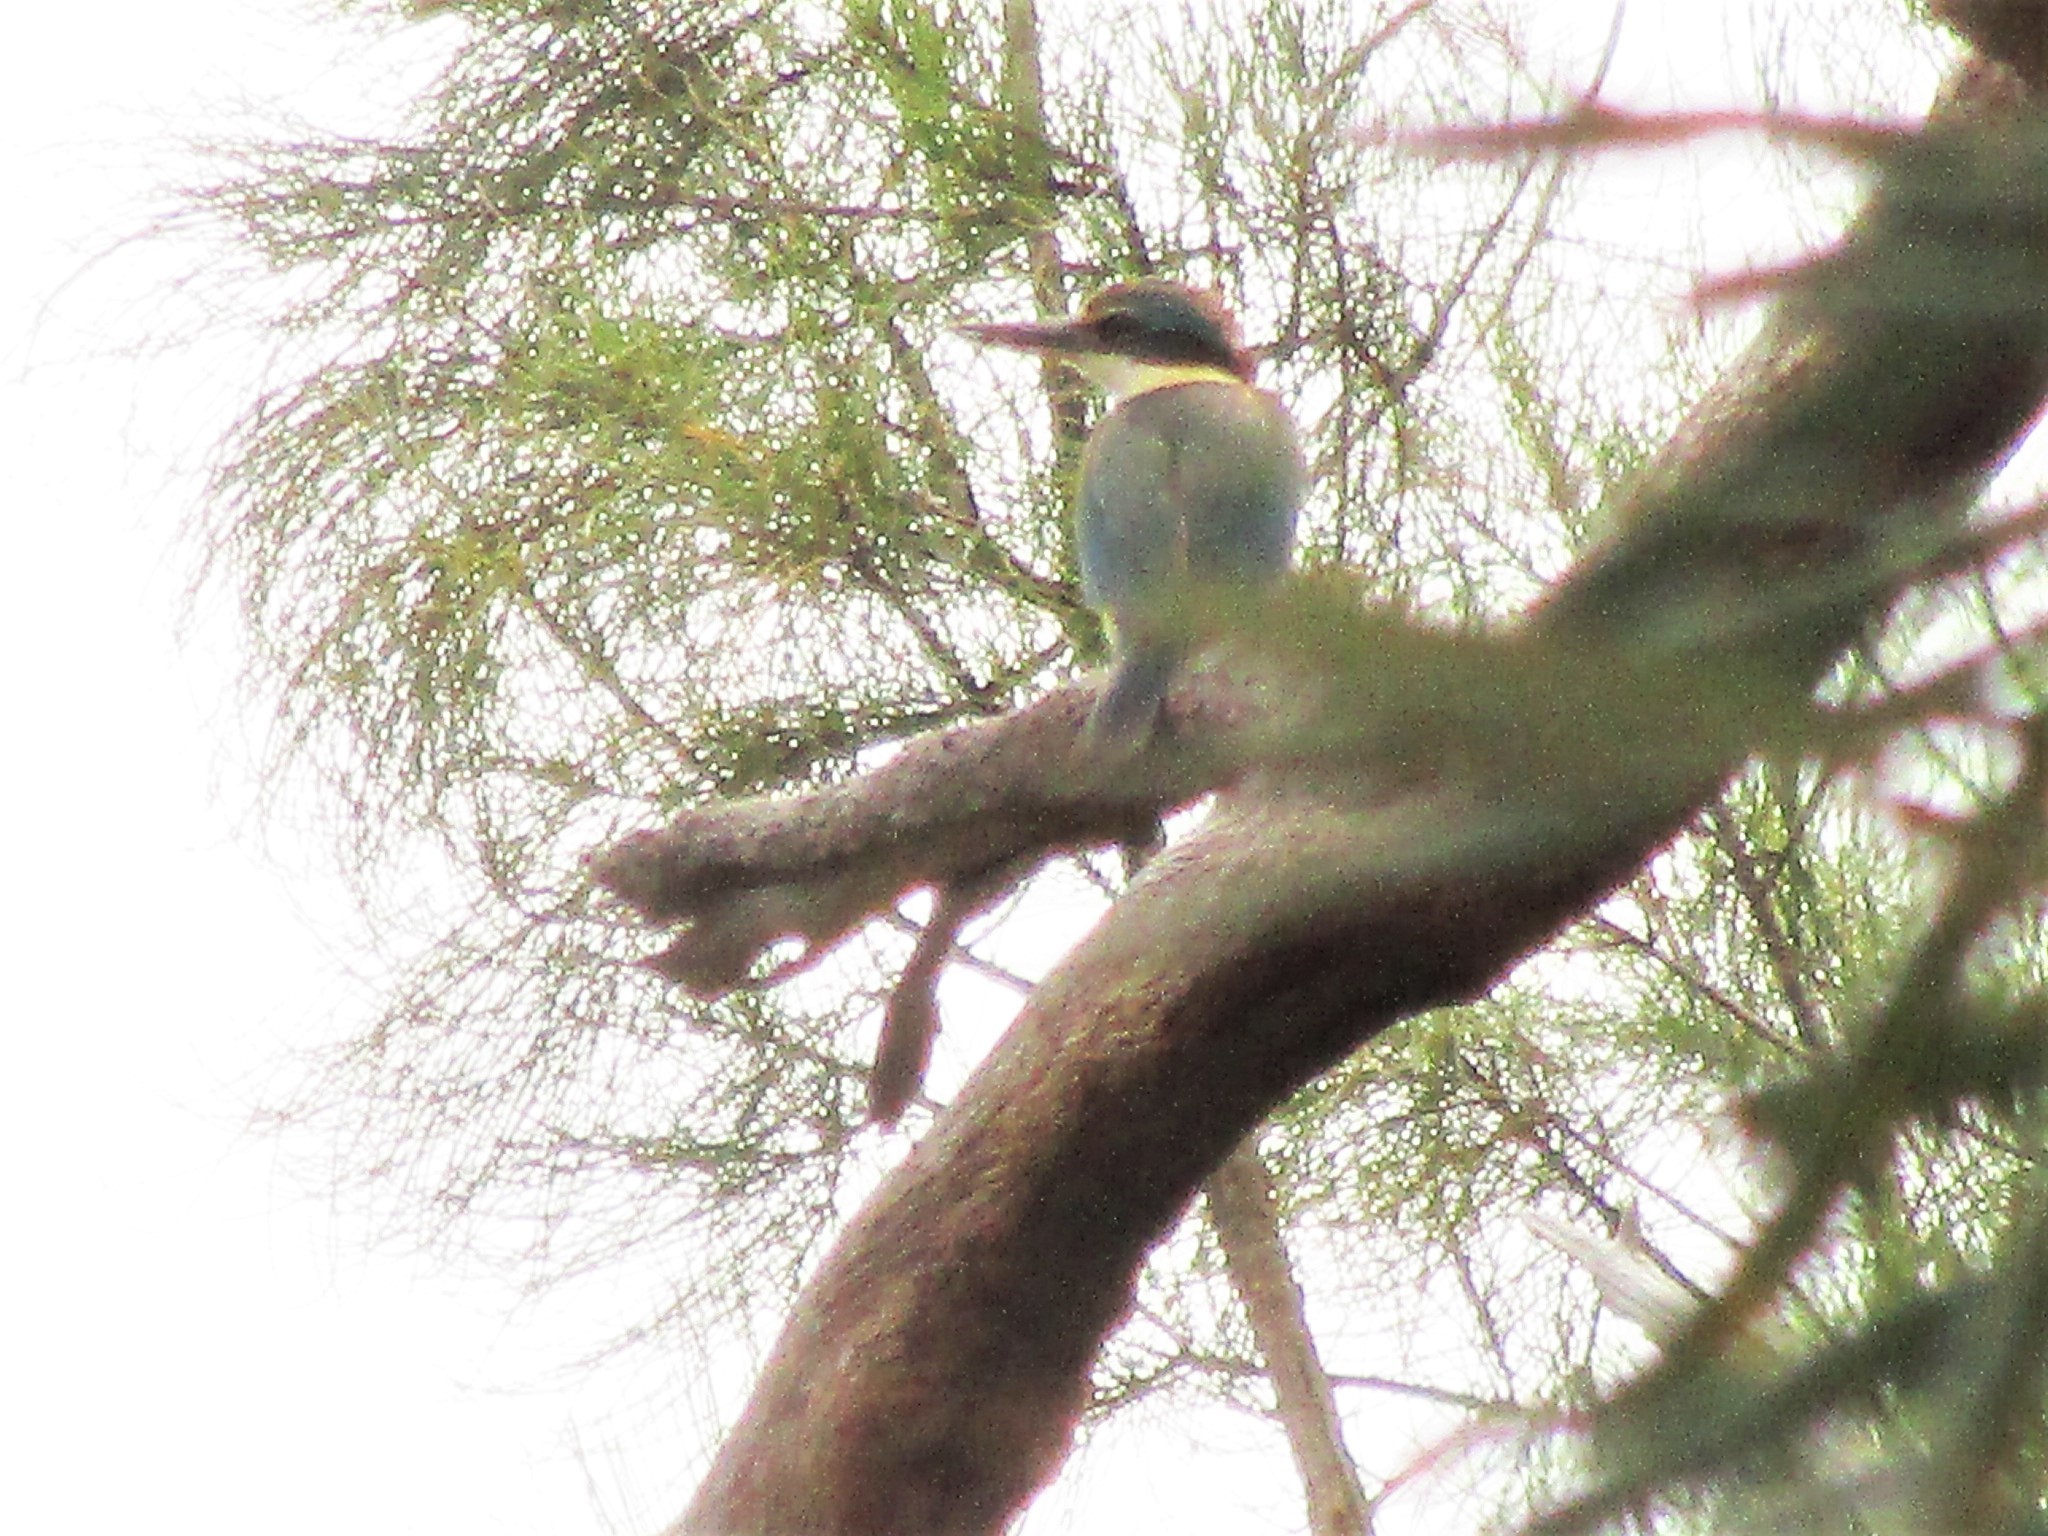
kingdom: Animalia
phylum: Chordata
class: Aves
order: Coraciiformes
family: Alcedinidae
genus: Todiramphus
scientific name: Todiramphus sanctus
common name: Sacred kingfisher
